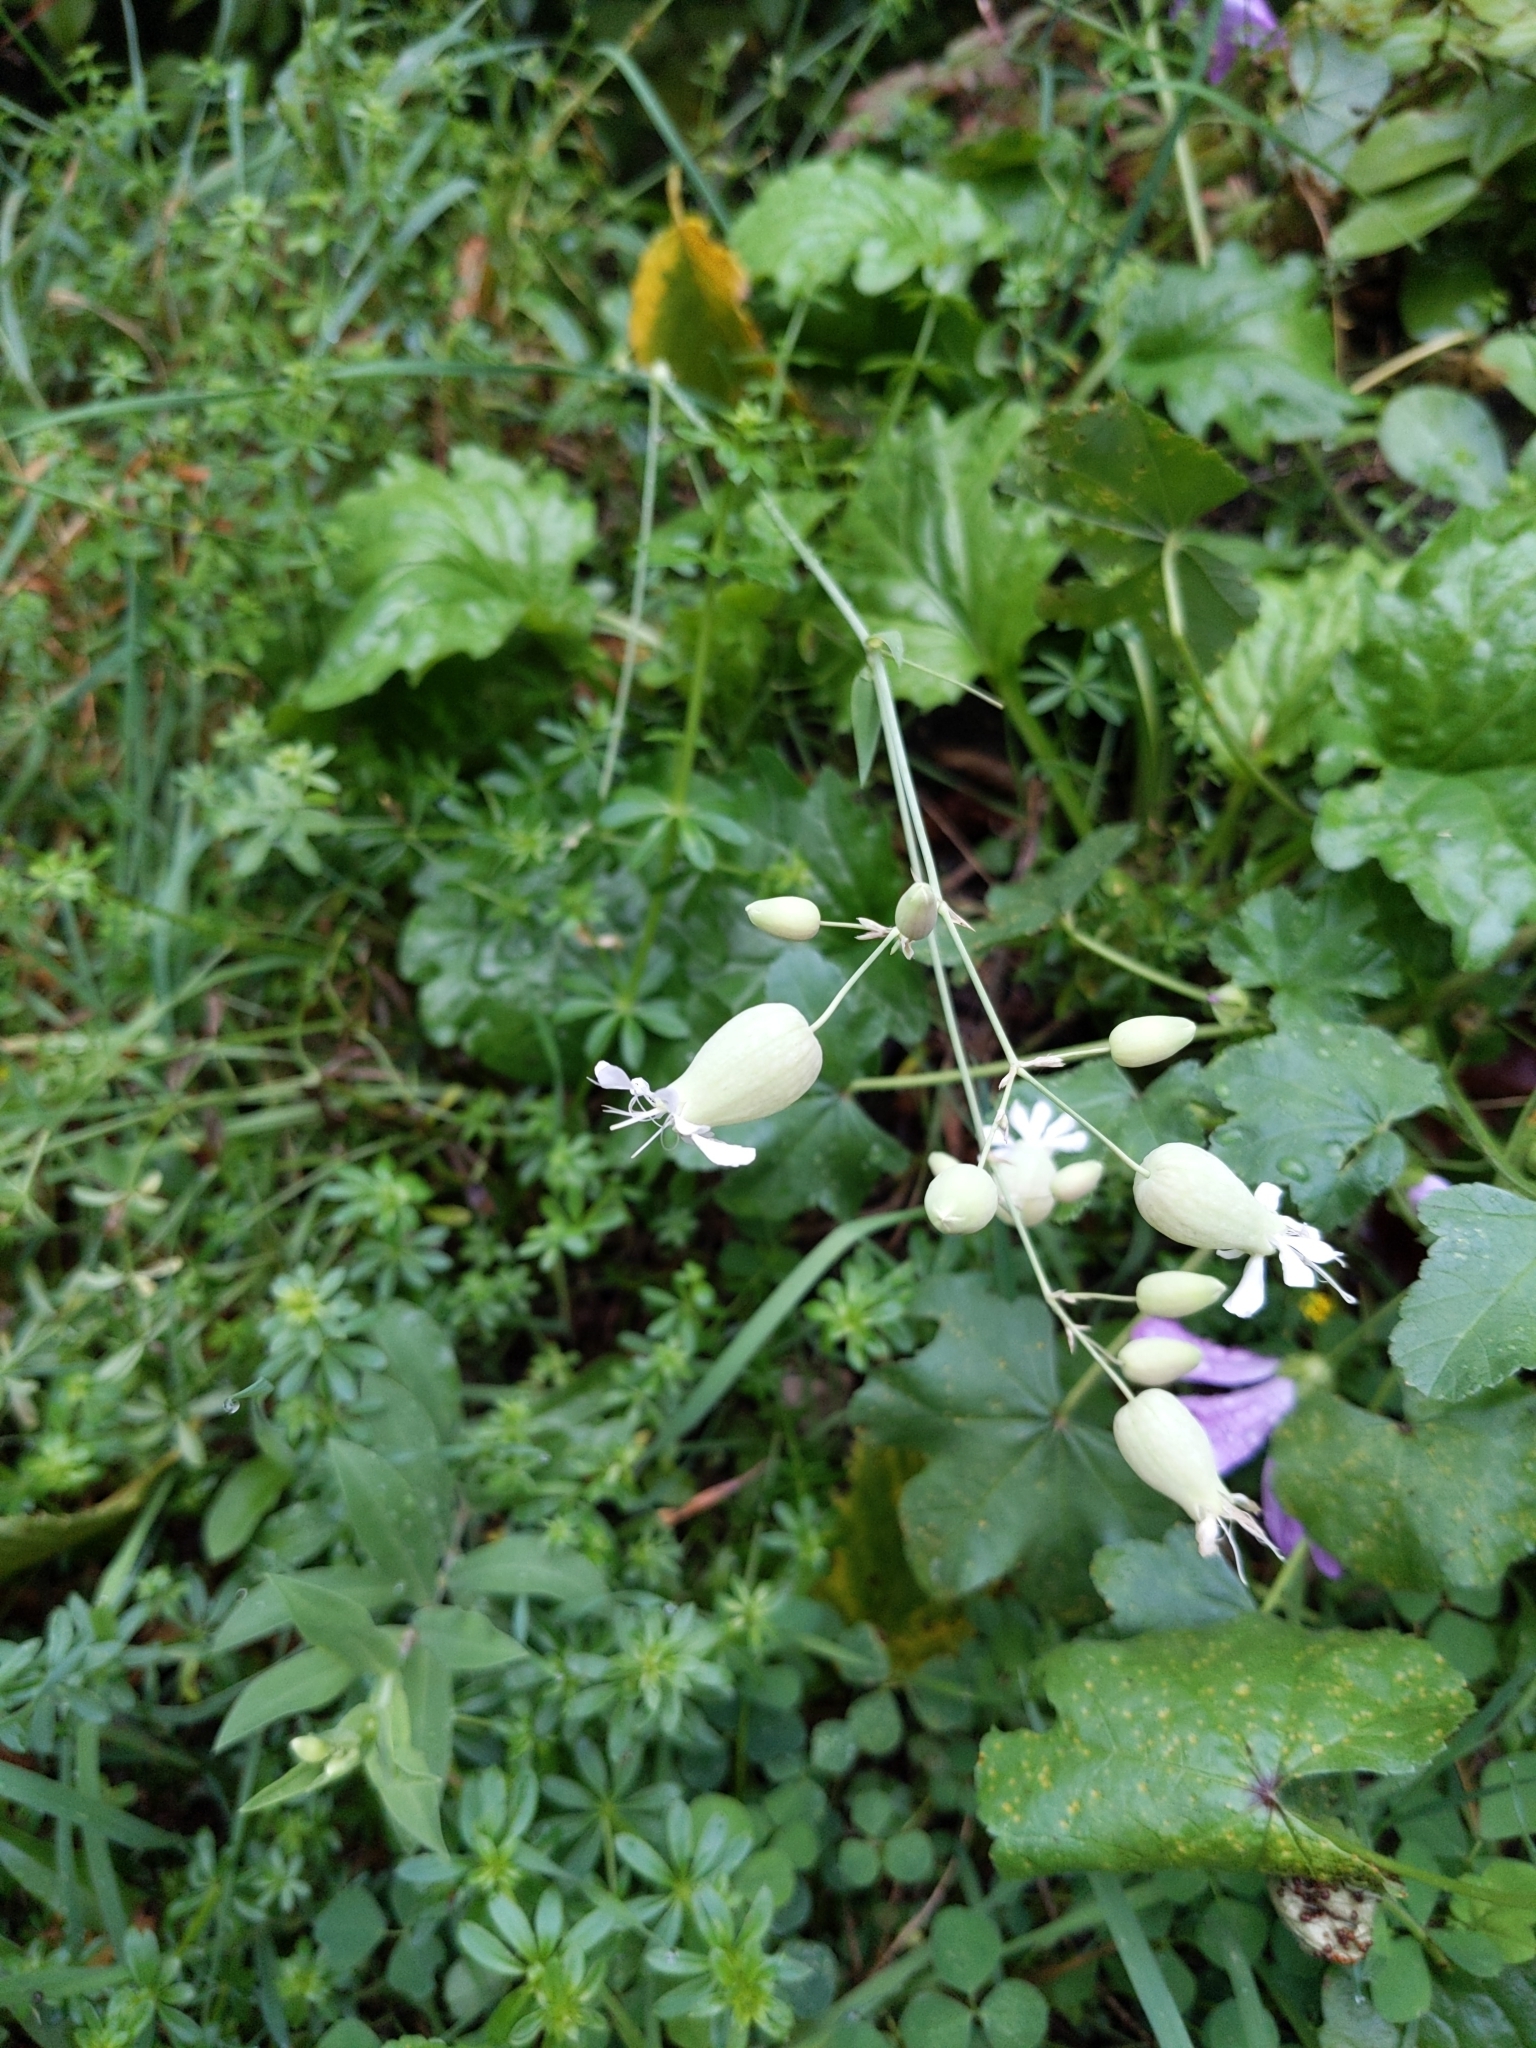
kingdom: Plantae
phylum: Tracheophyta
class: Magnoliopsida
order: Caryophyllales
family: Caryophyllaceae
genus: Silene
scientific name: Silene vulgaris
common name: Bladder campion
